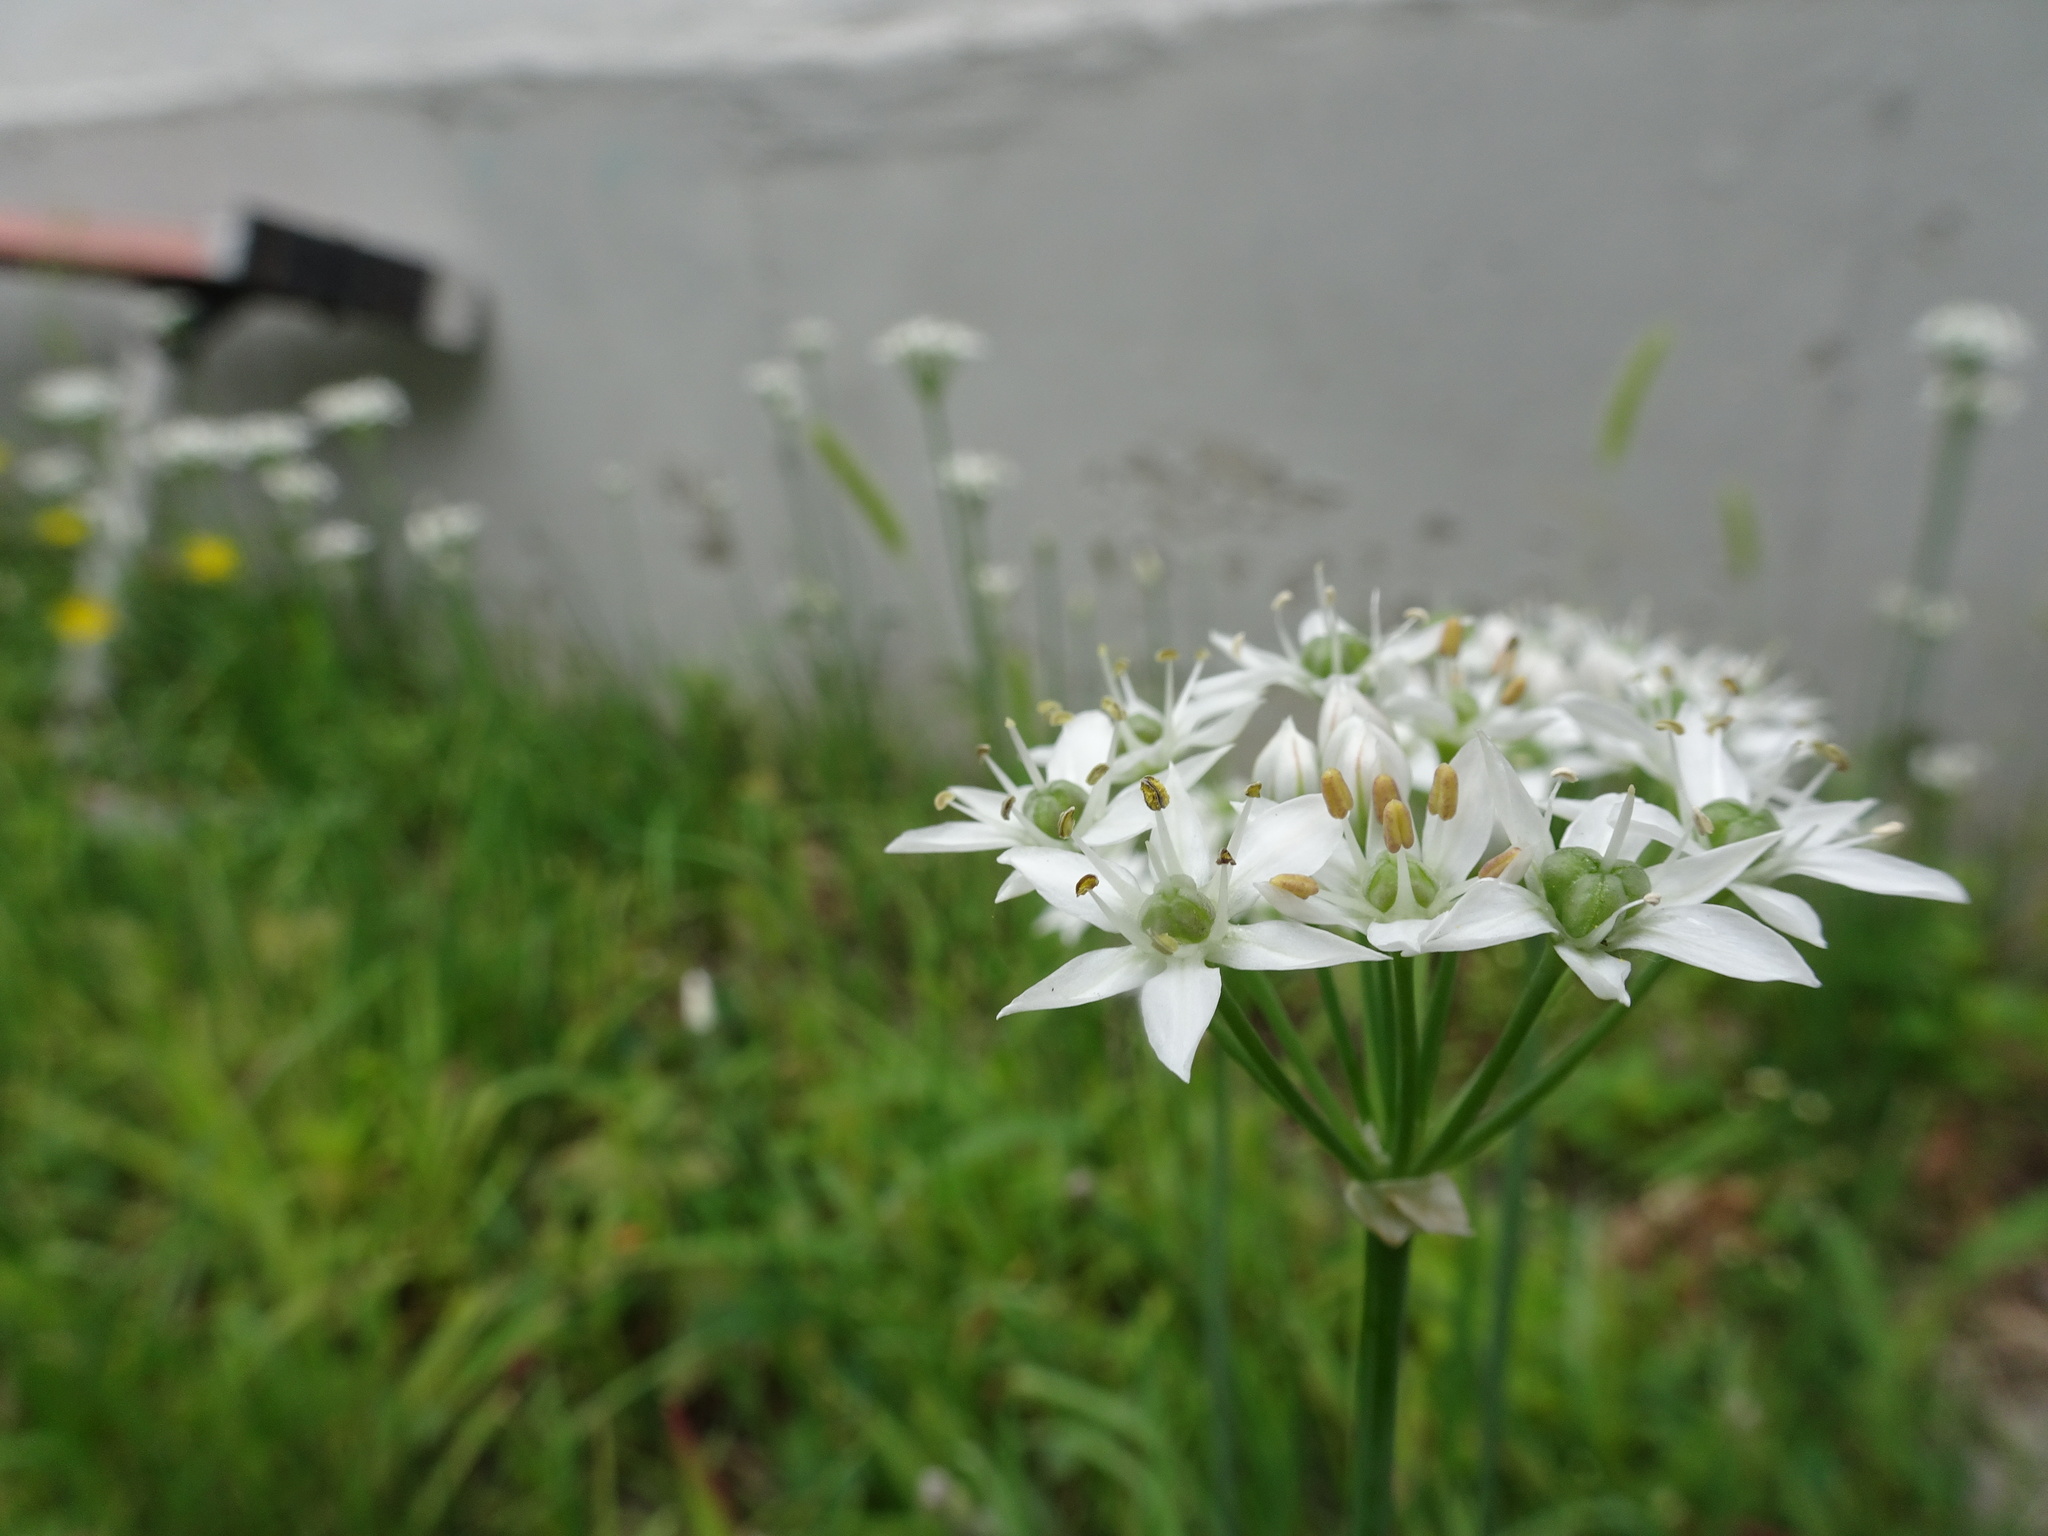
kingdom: Plantae
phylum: Tracheophyta
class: Liliopsida
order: Asparagales
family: Amaryllidaceae
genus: Allium
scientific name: Allium tuberosum
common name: Chinese chives
